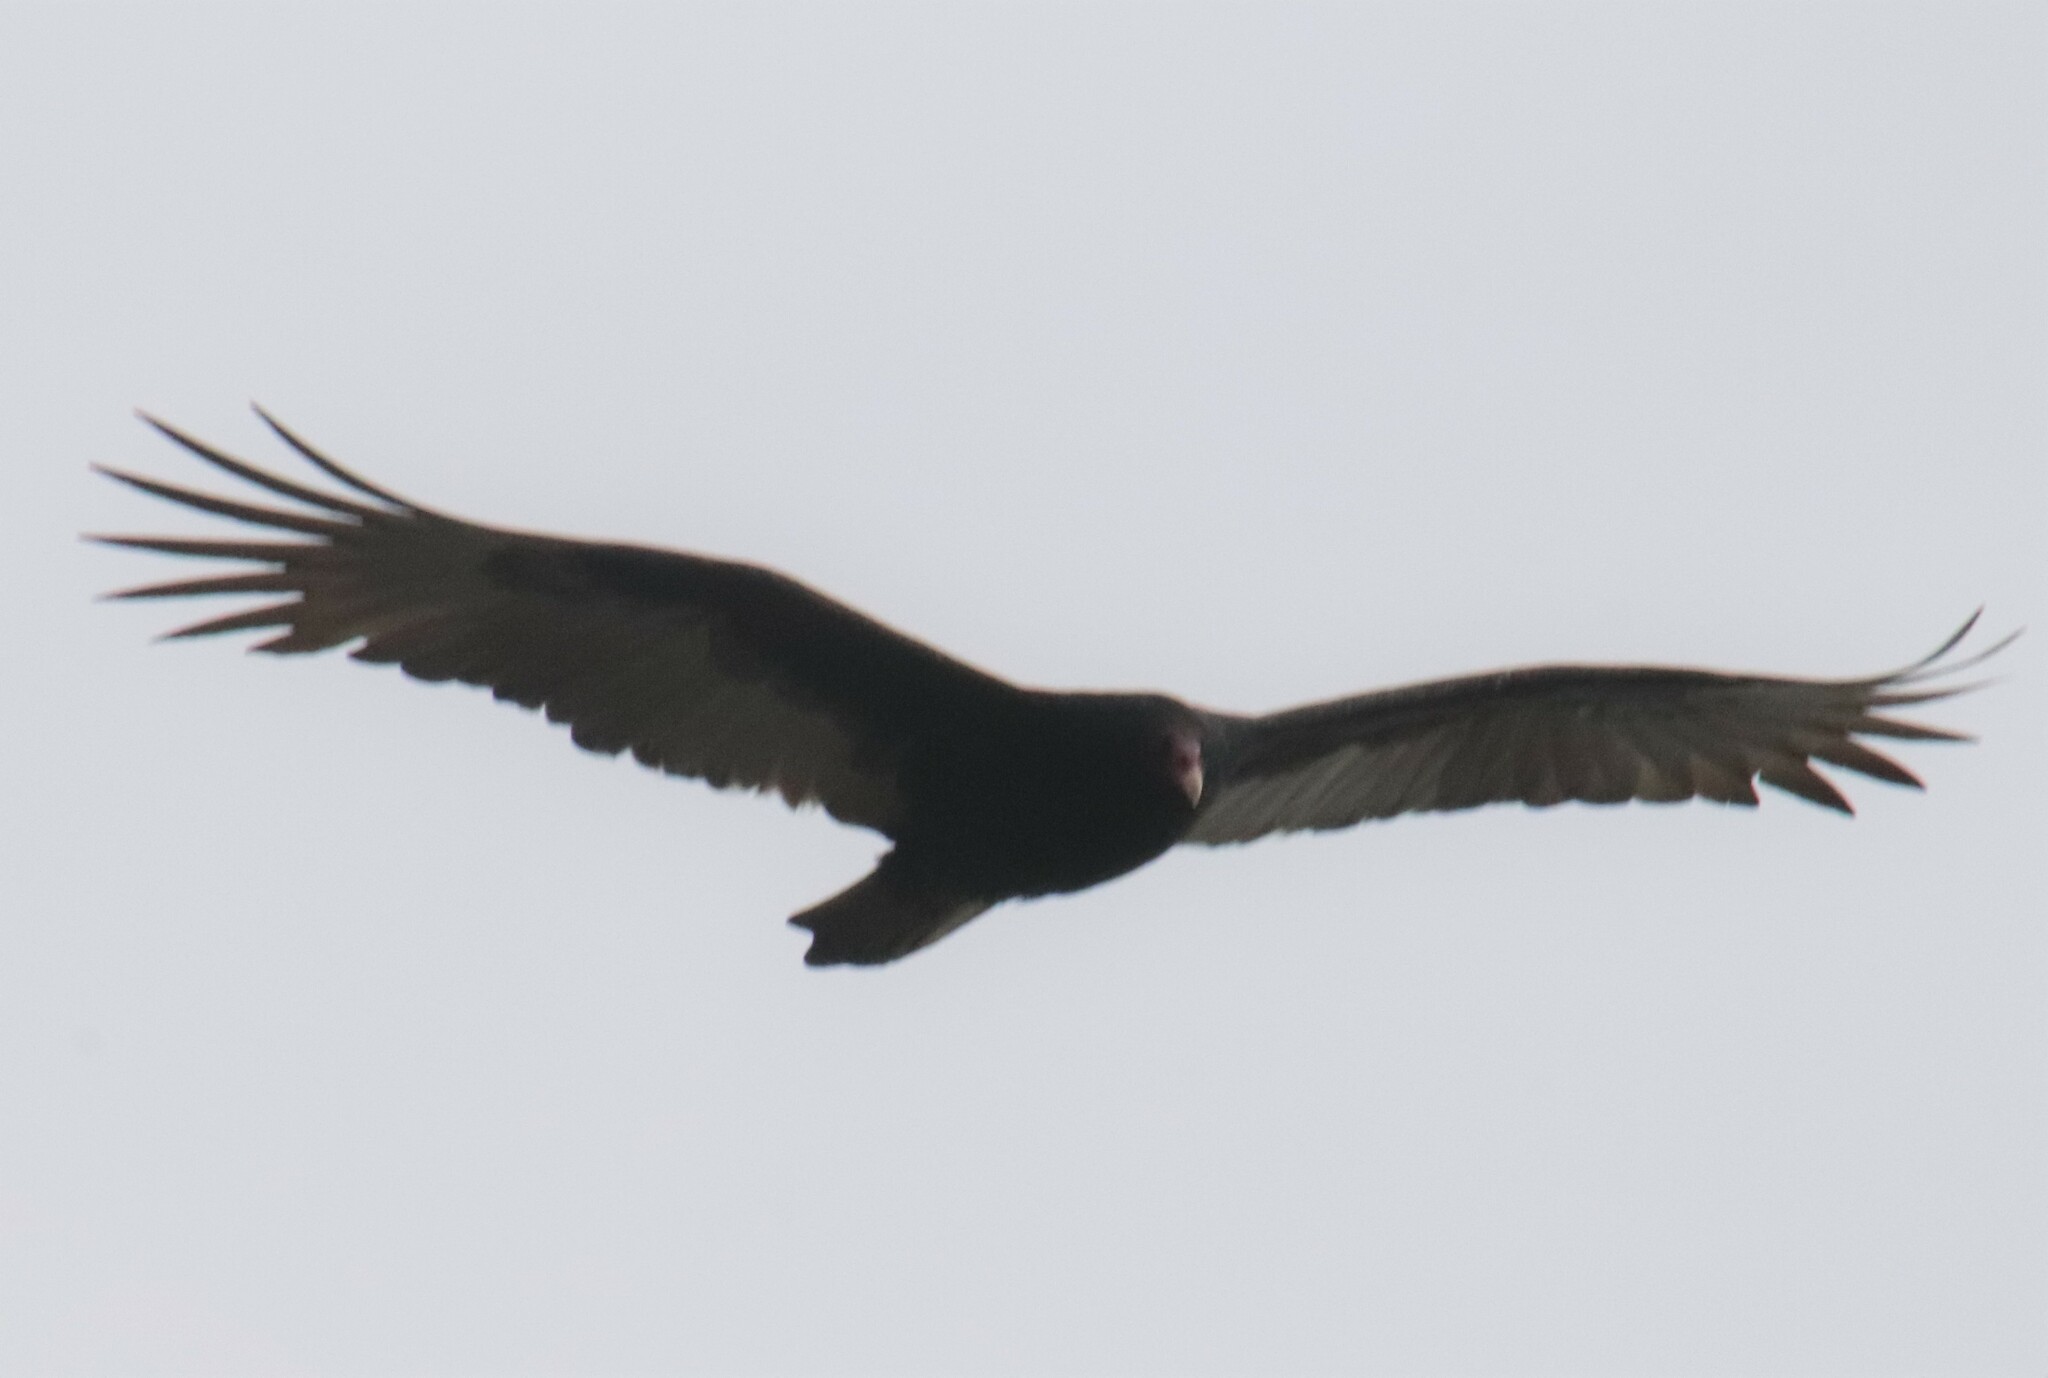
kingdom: Animalia
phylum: Chordata
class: Aves
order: Accipitriformes
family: Cathartidae
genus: Cathartes
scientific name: Cathartes aura
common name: Turkey vulture
